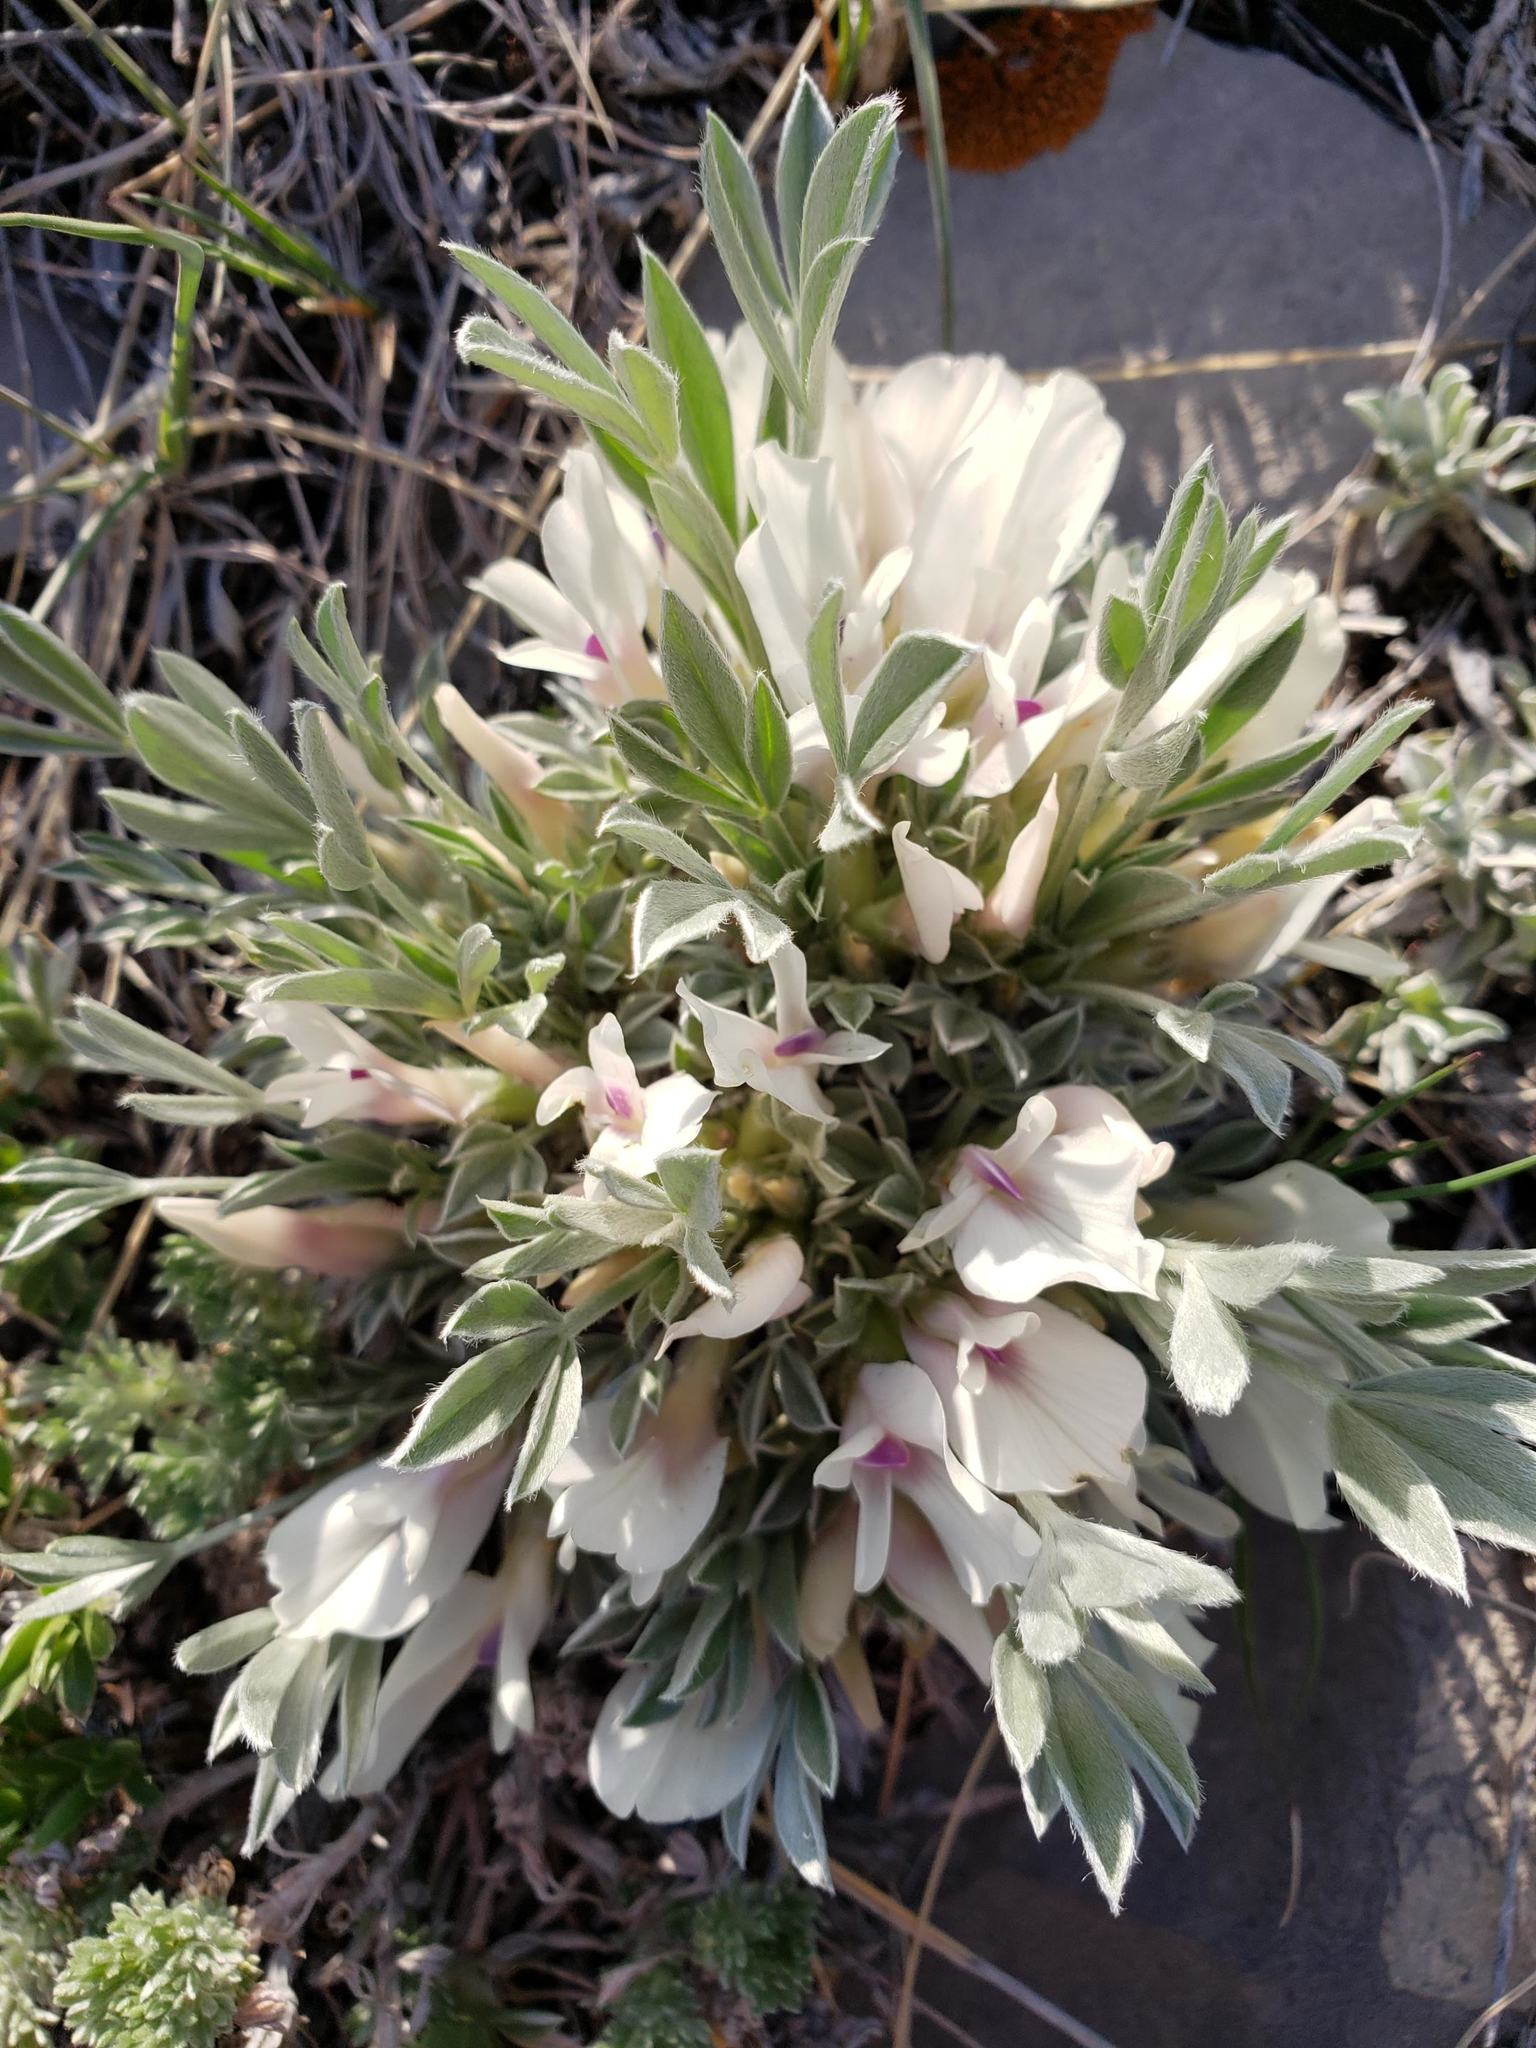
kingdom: Plantae
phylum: Tracheophyta
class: Magnoliopsida
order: Fabales
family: Fabaceae
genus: Astragalus
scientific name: Astragalus gilviflorus
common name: Cushion milk-vetch
